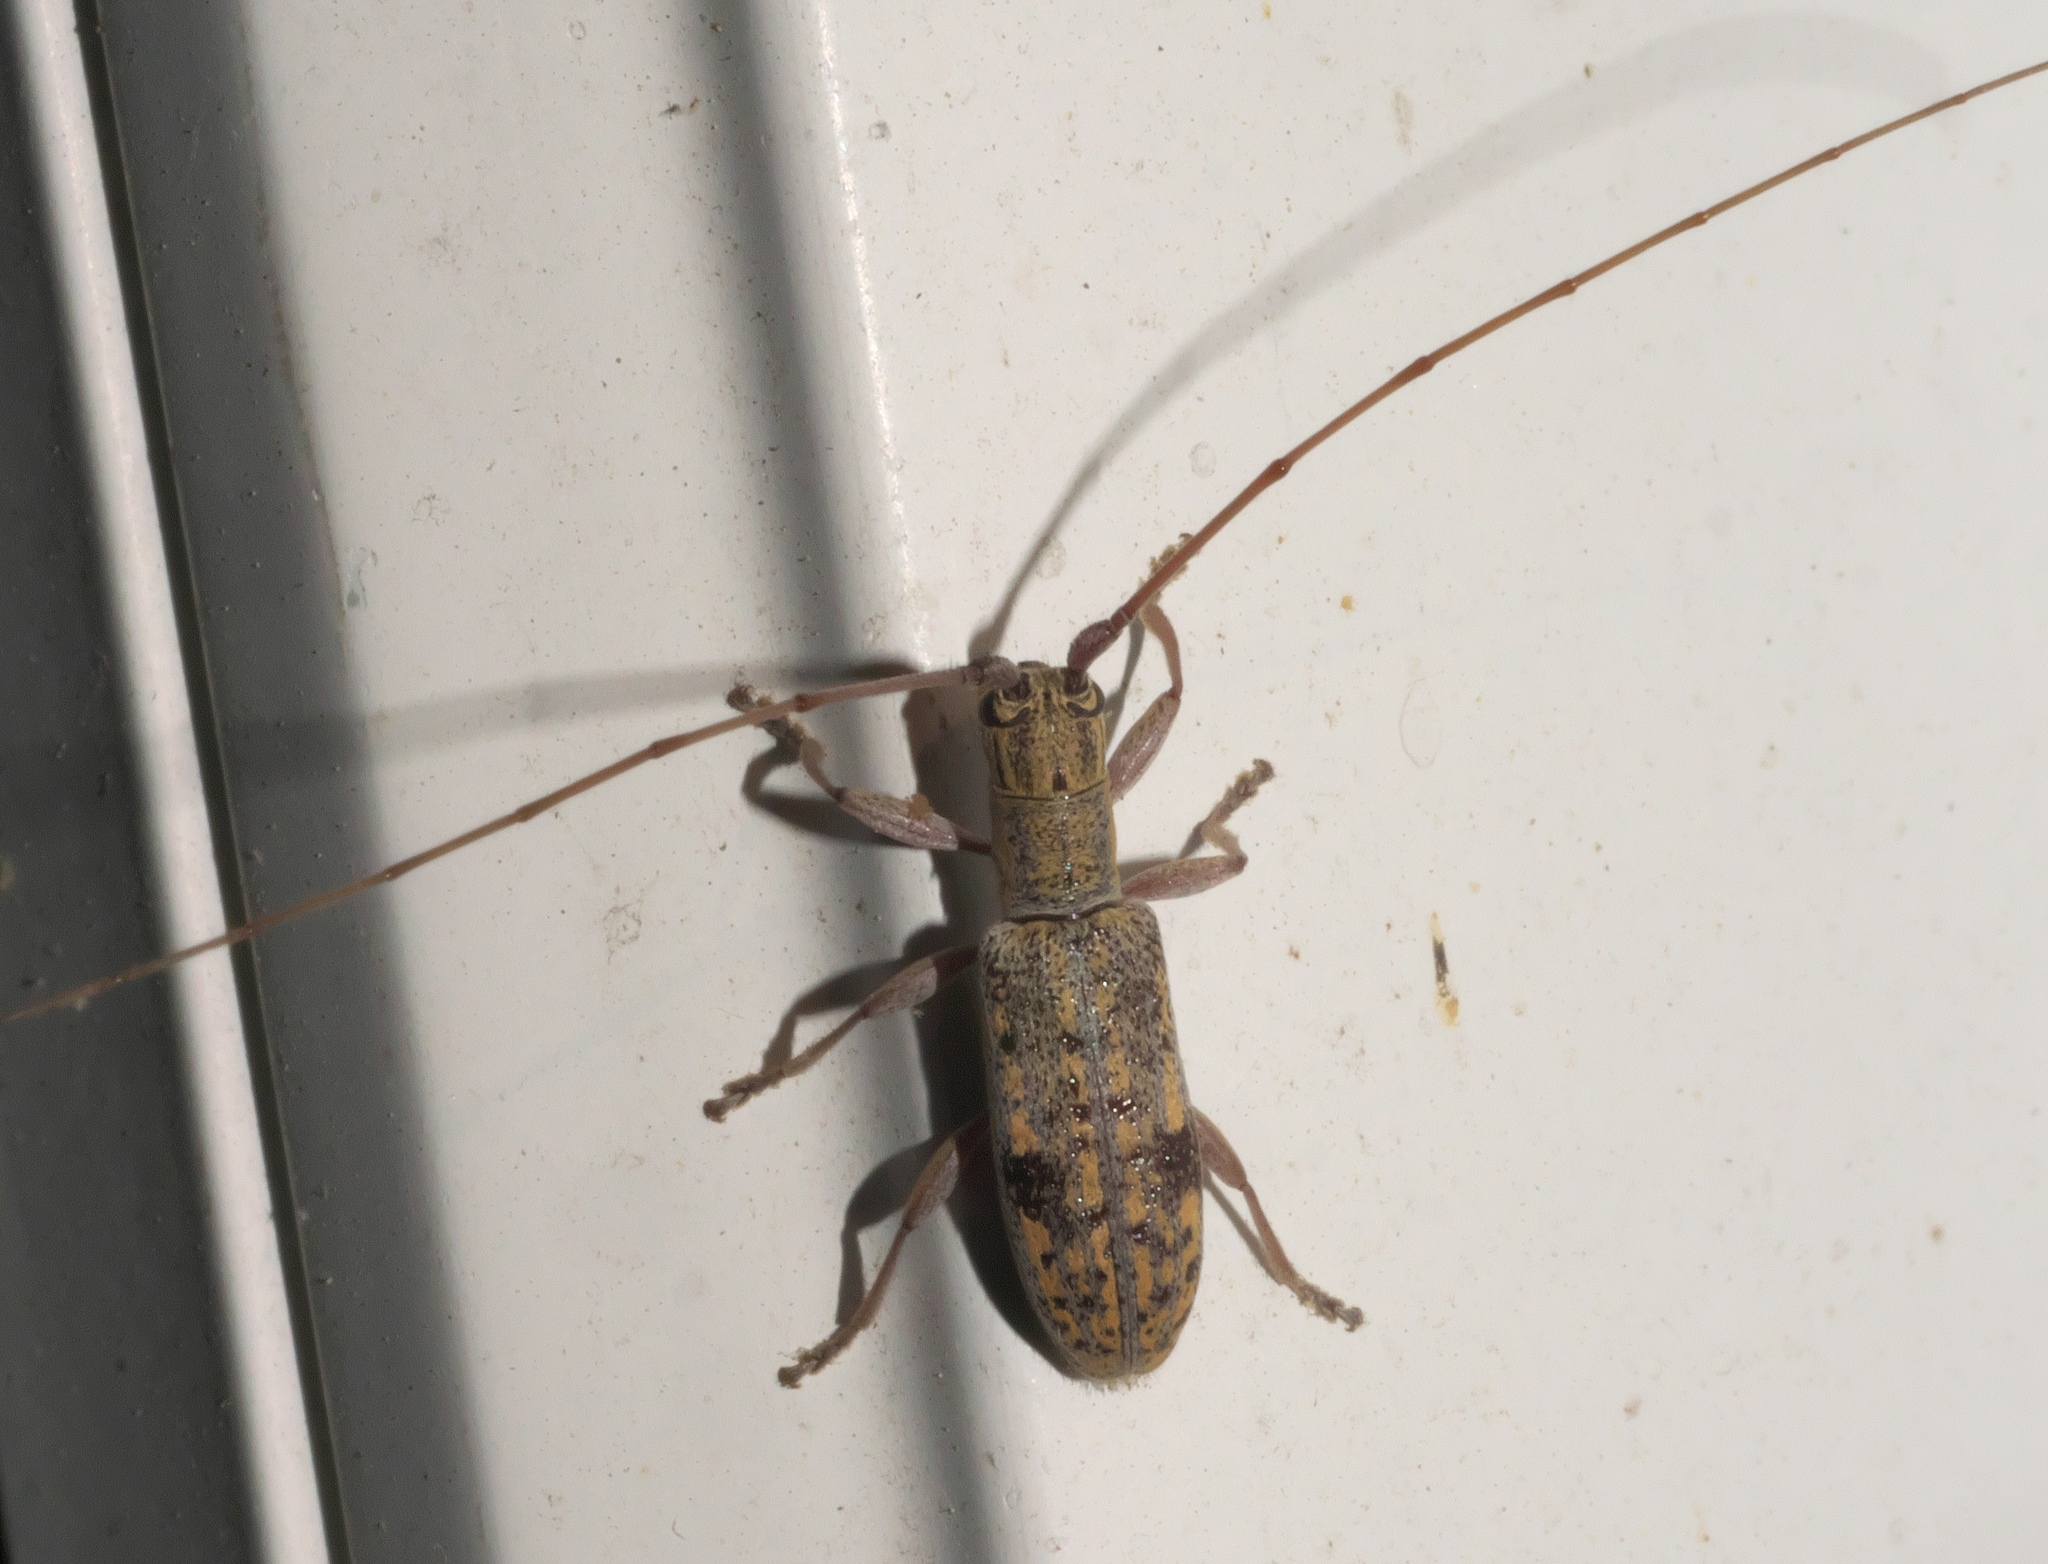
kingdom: Animalia
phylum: Arthropoda
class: Insecta
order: Coleoptera
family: Cerambycidae
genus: Dorcaschema
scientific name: Dorcaschema alternatum
